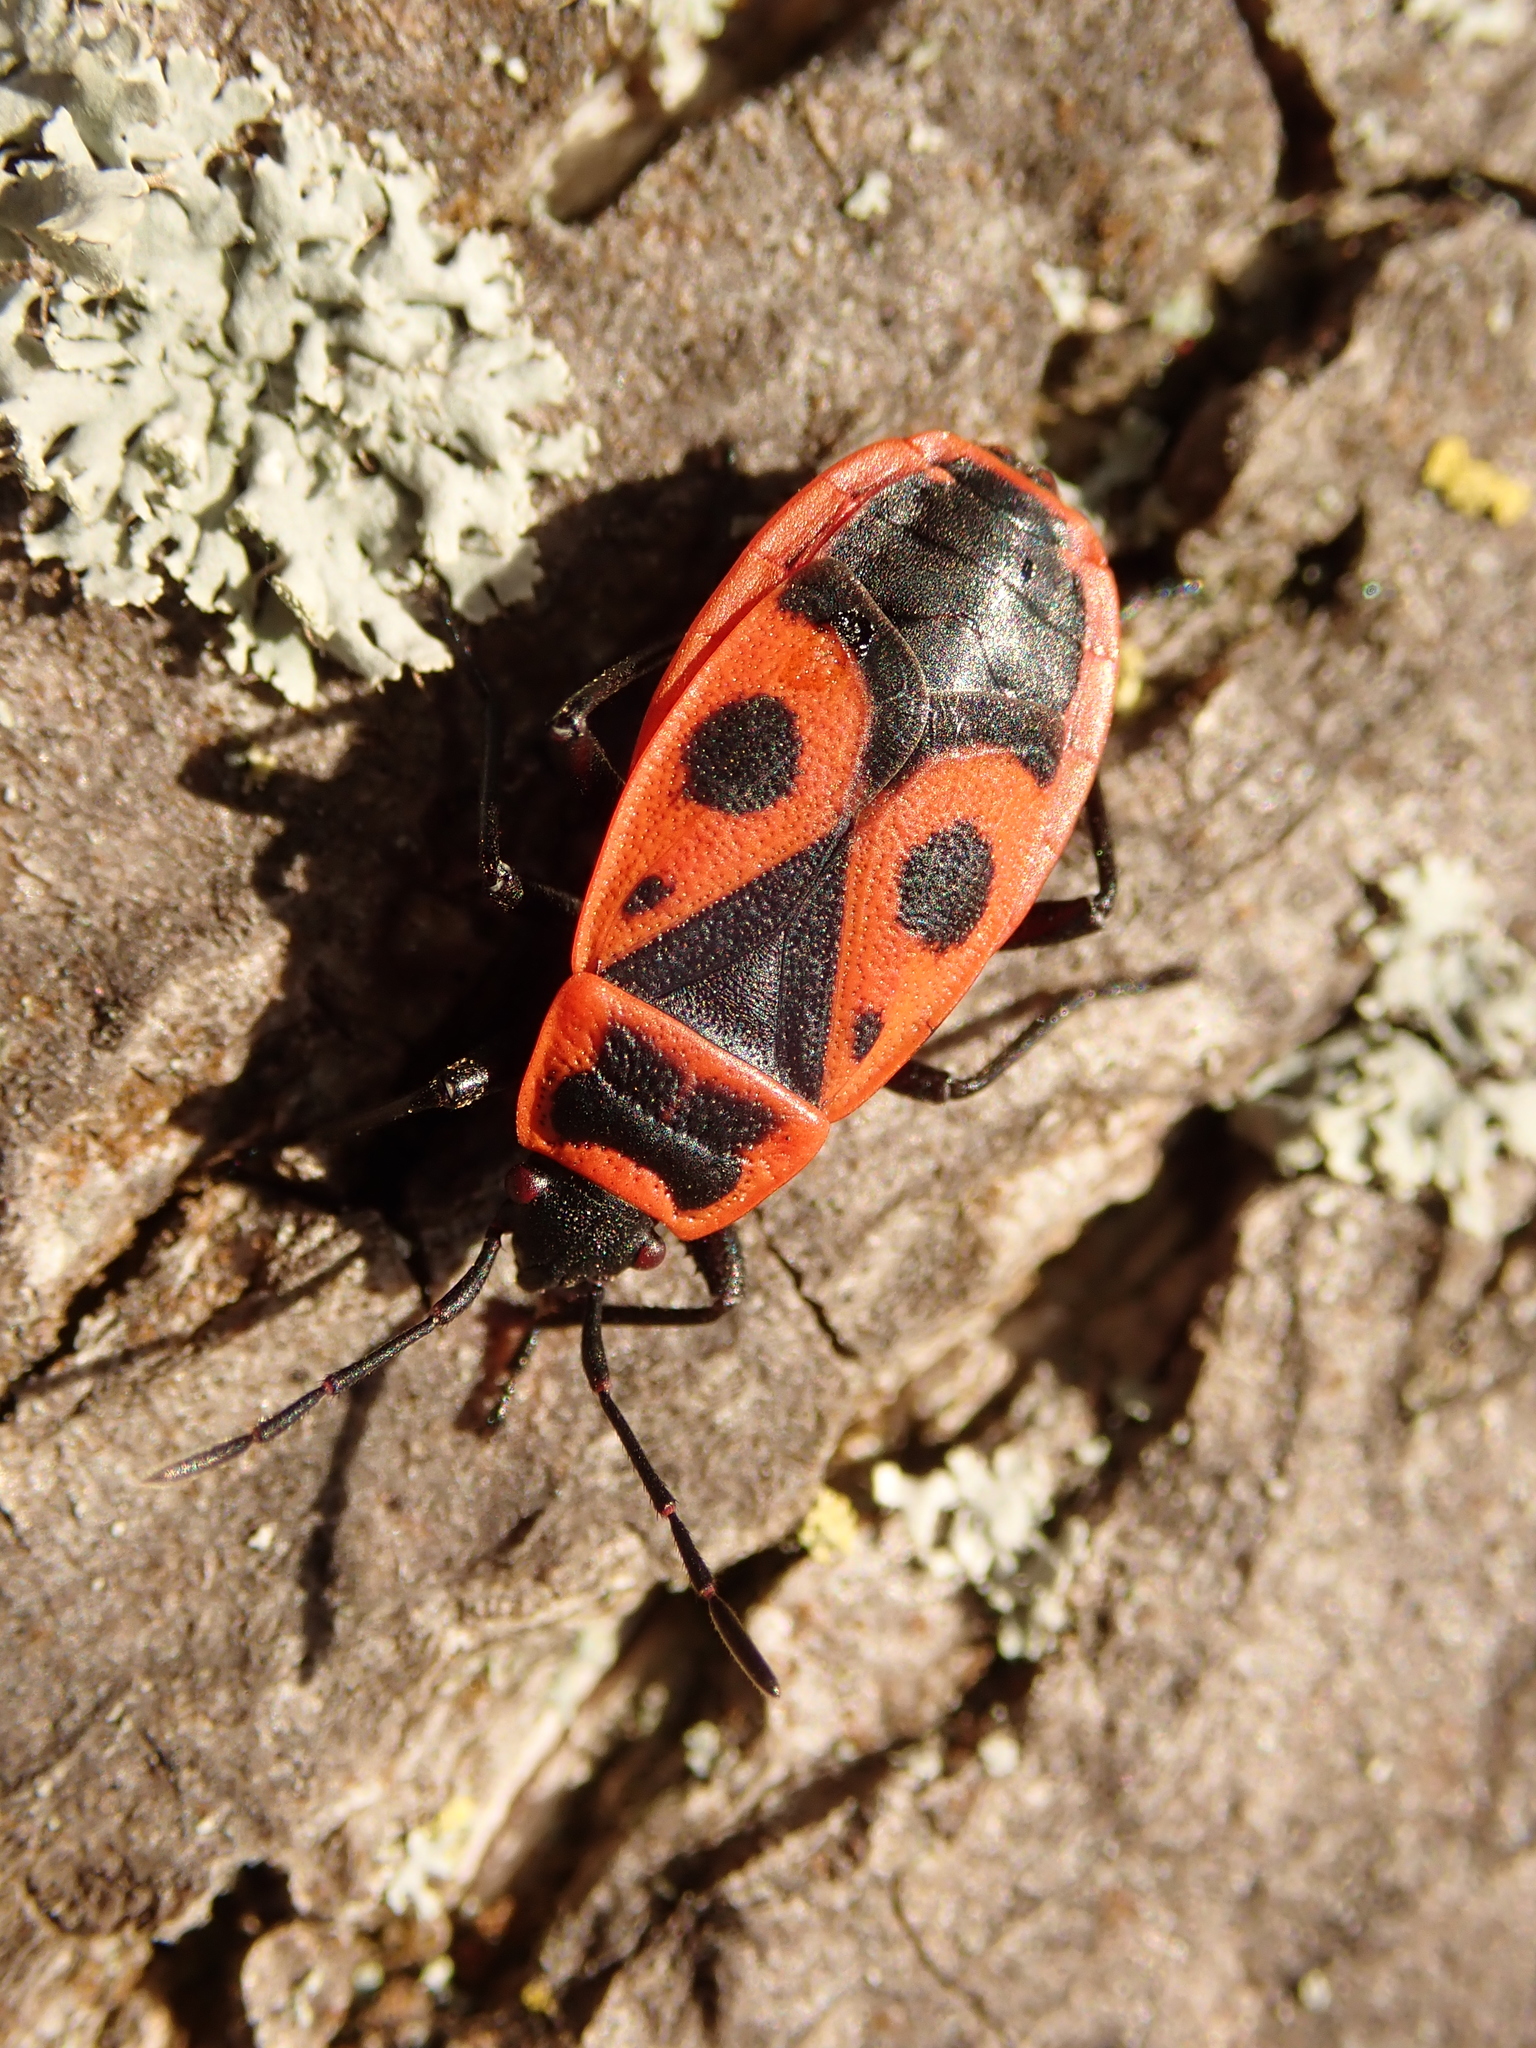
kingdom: Animalia
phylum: Arthropoda
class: Insecta
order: Hemiptera
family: Pyrrhocoridae
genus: Pyrrhocoris
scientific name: Pyrrhocoris apterus
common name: Firebug
